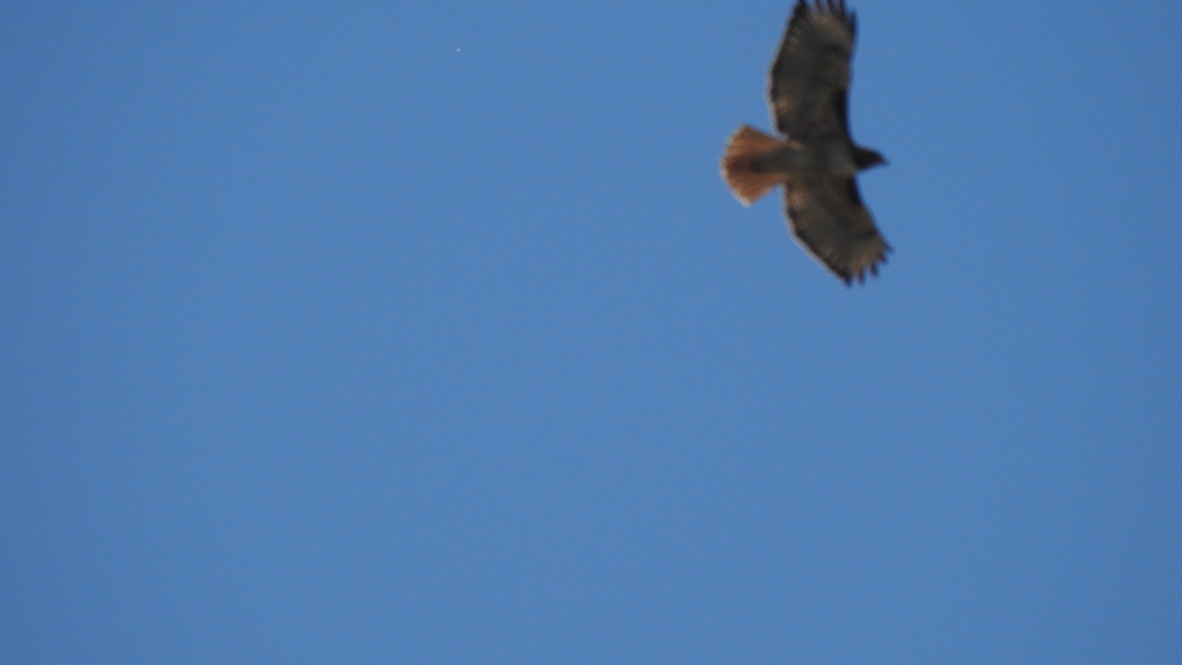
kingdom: Animalia
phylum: Chordata
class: Aves
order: Accipitriformes
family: Accipitridae
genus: Buteo
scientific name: Buteo jamaicensis
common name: Red-tailed hawk
